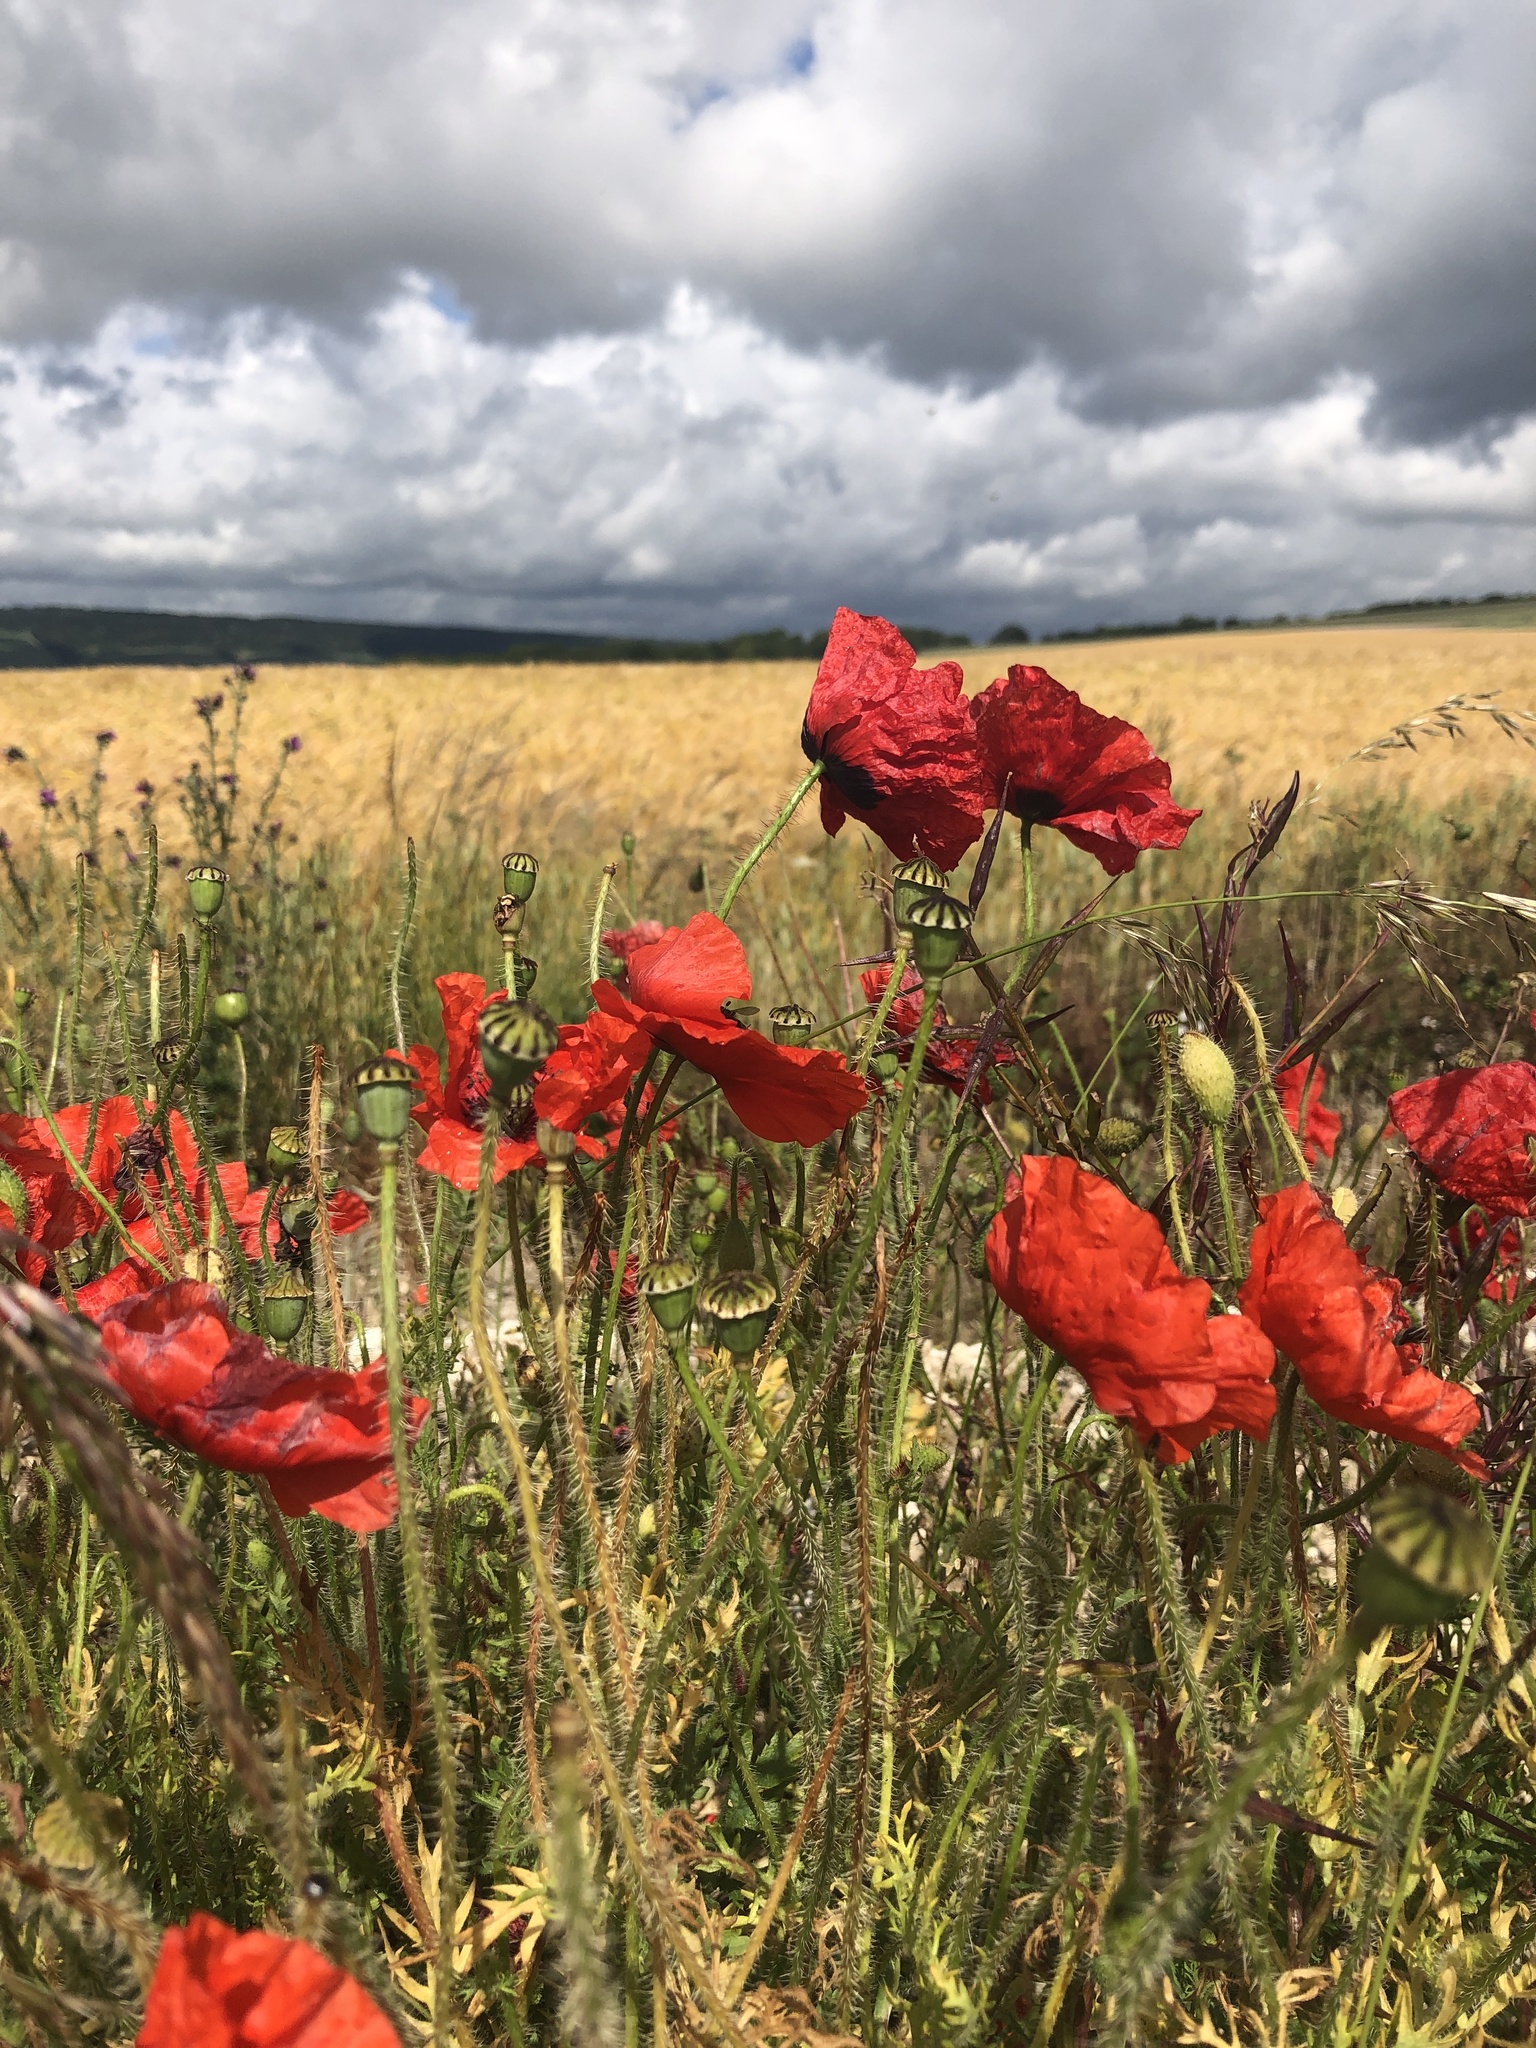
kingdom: Plantae
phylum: Tracheophyta
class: Magnoliopsida
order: Ranunculales
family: Papaveraceae
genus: Papaver
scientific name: Papaver rhoeas
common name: Corn poppy
